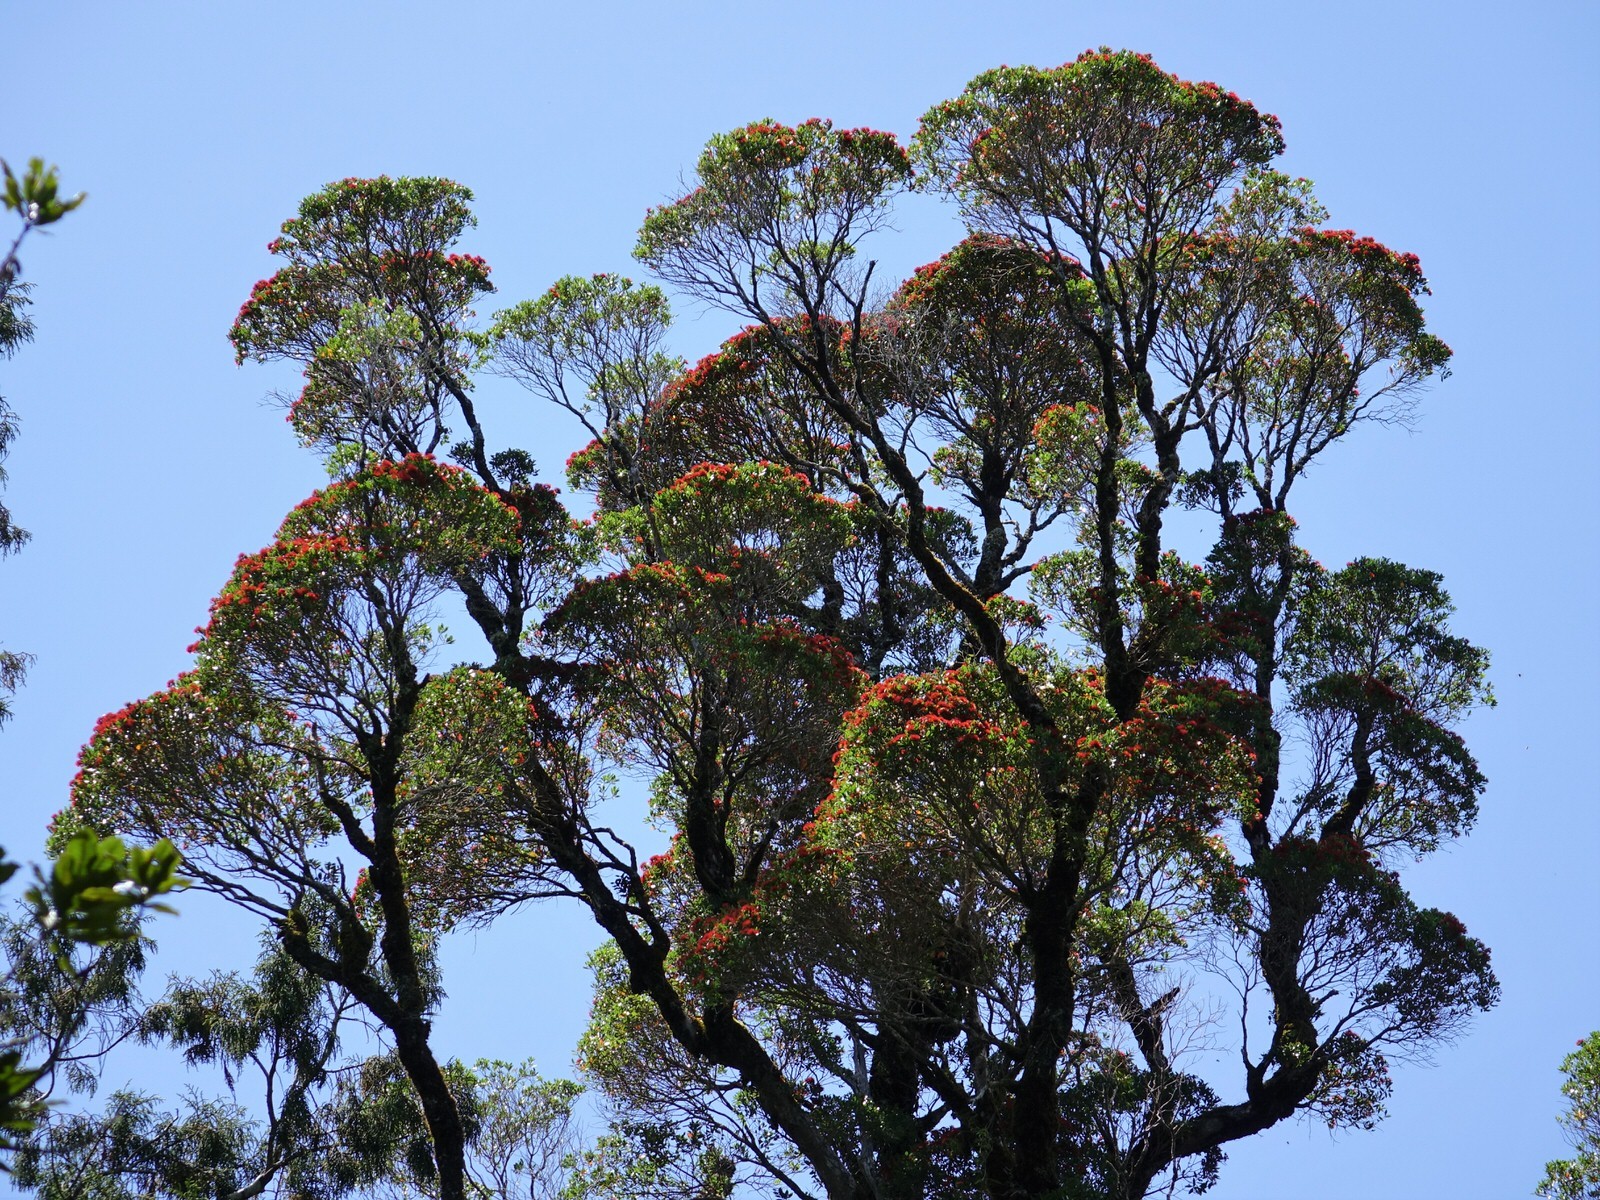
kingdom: Plantae
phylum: Tracheophyta
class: Magnoliopsida
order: Myrtales
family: Myrtaceae
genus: Metrosideros
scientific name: Metrosideros robusta
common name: Northern rata
